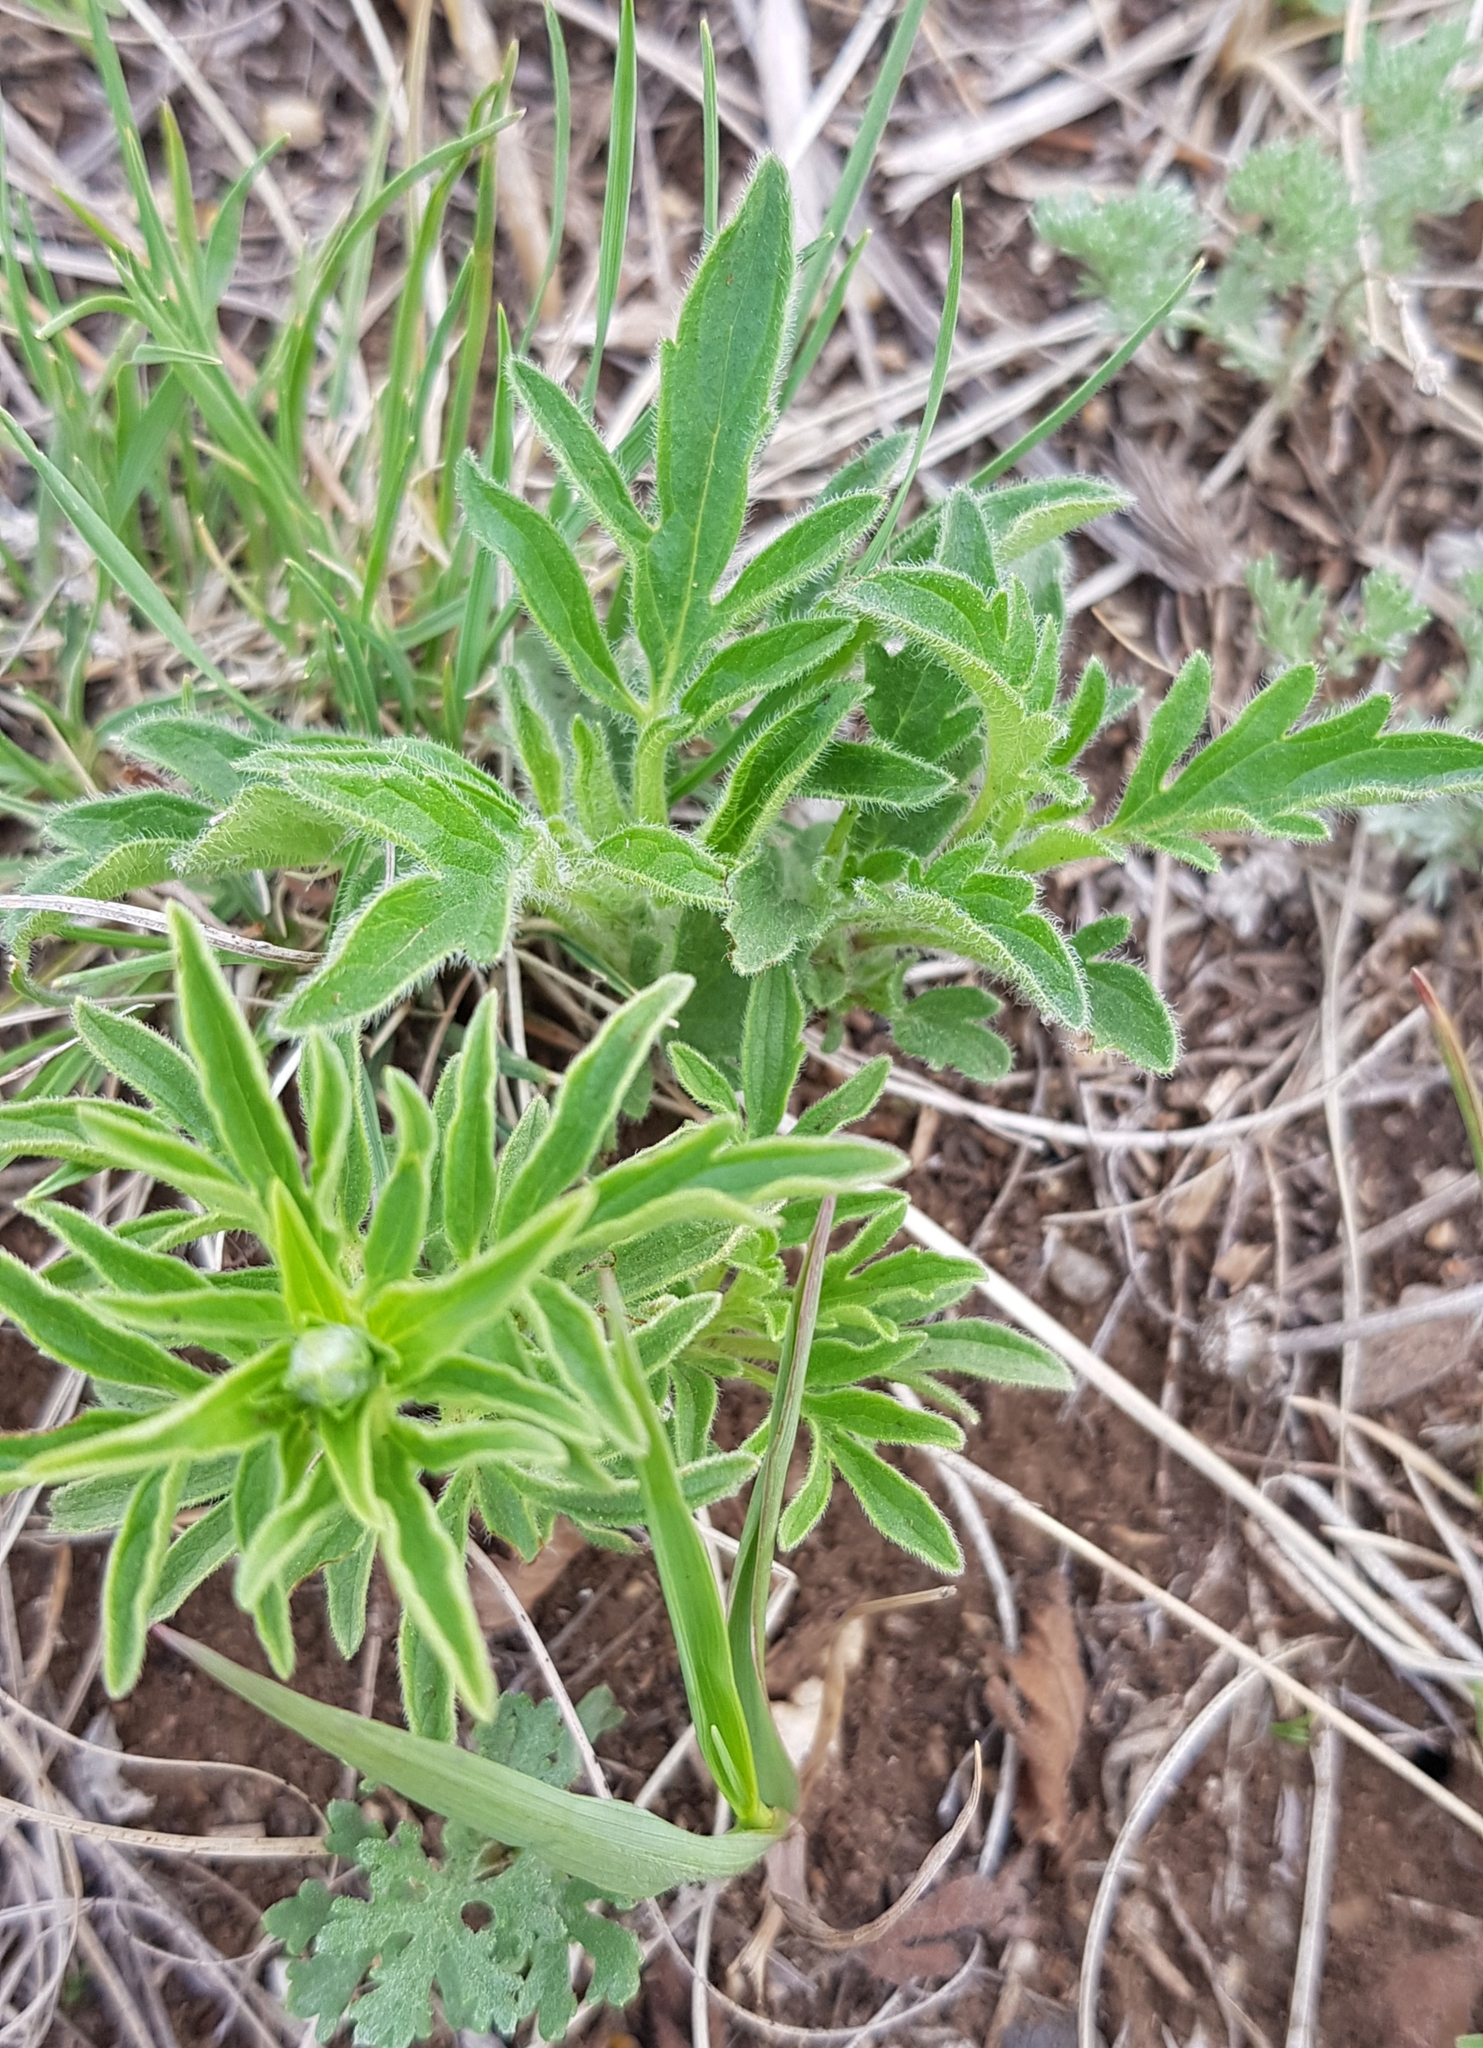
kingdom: Plantae
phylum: Tracheophyta
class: Magnoliopsida
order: Lamiales
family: Lamiaceae
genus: Nepeta
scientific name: Nepeta multifida
